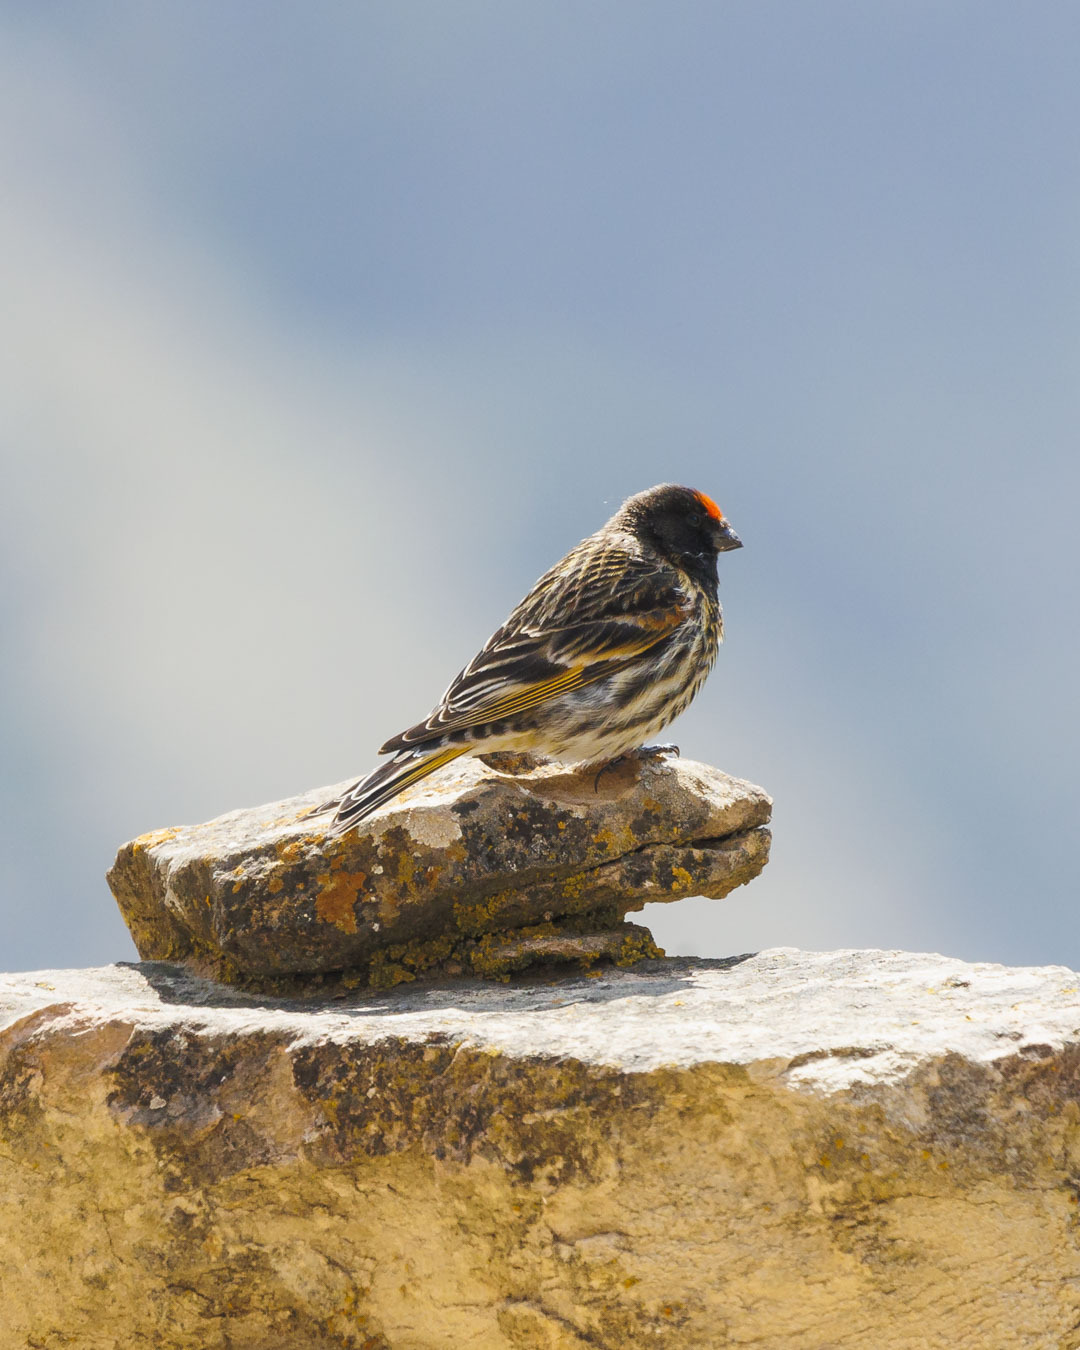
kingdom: Animalia
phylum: Chordata
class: Aves
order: Passeriformes
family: Fringillidae
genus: Serinus
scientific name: Serinus pusillus
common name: Red-fronted serin
